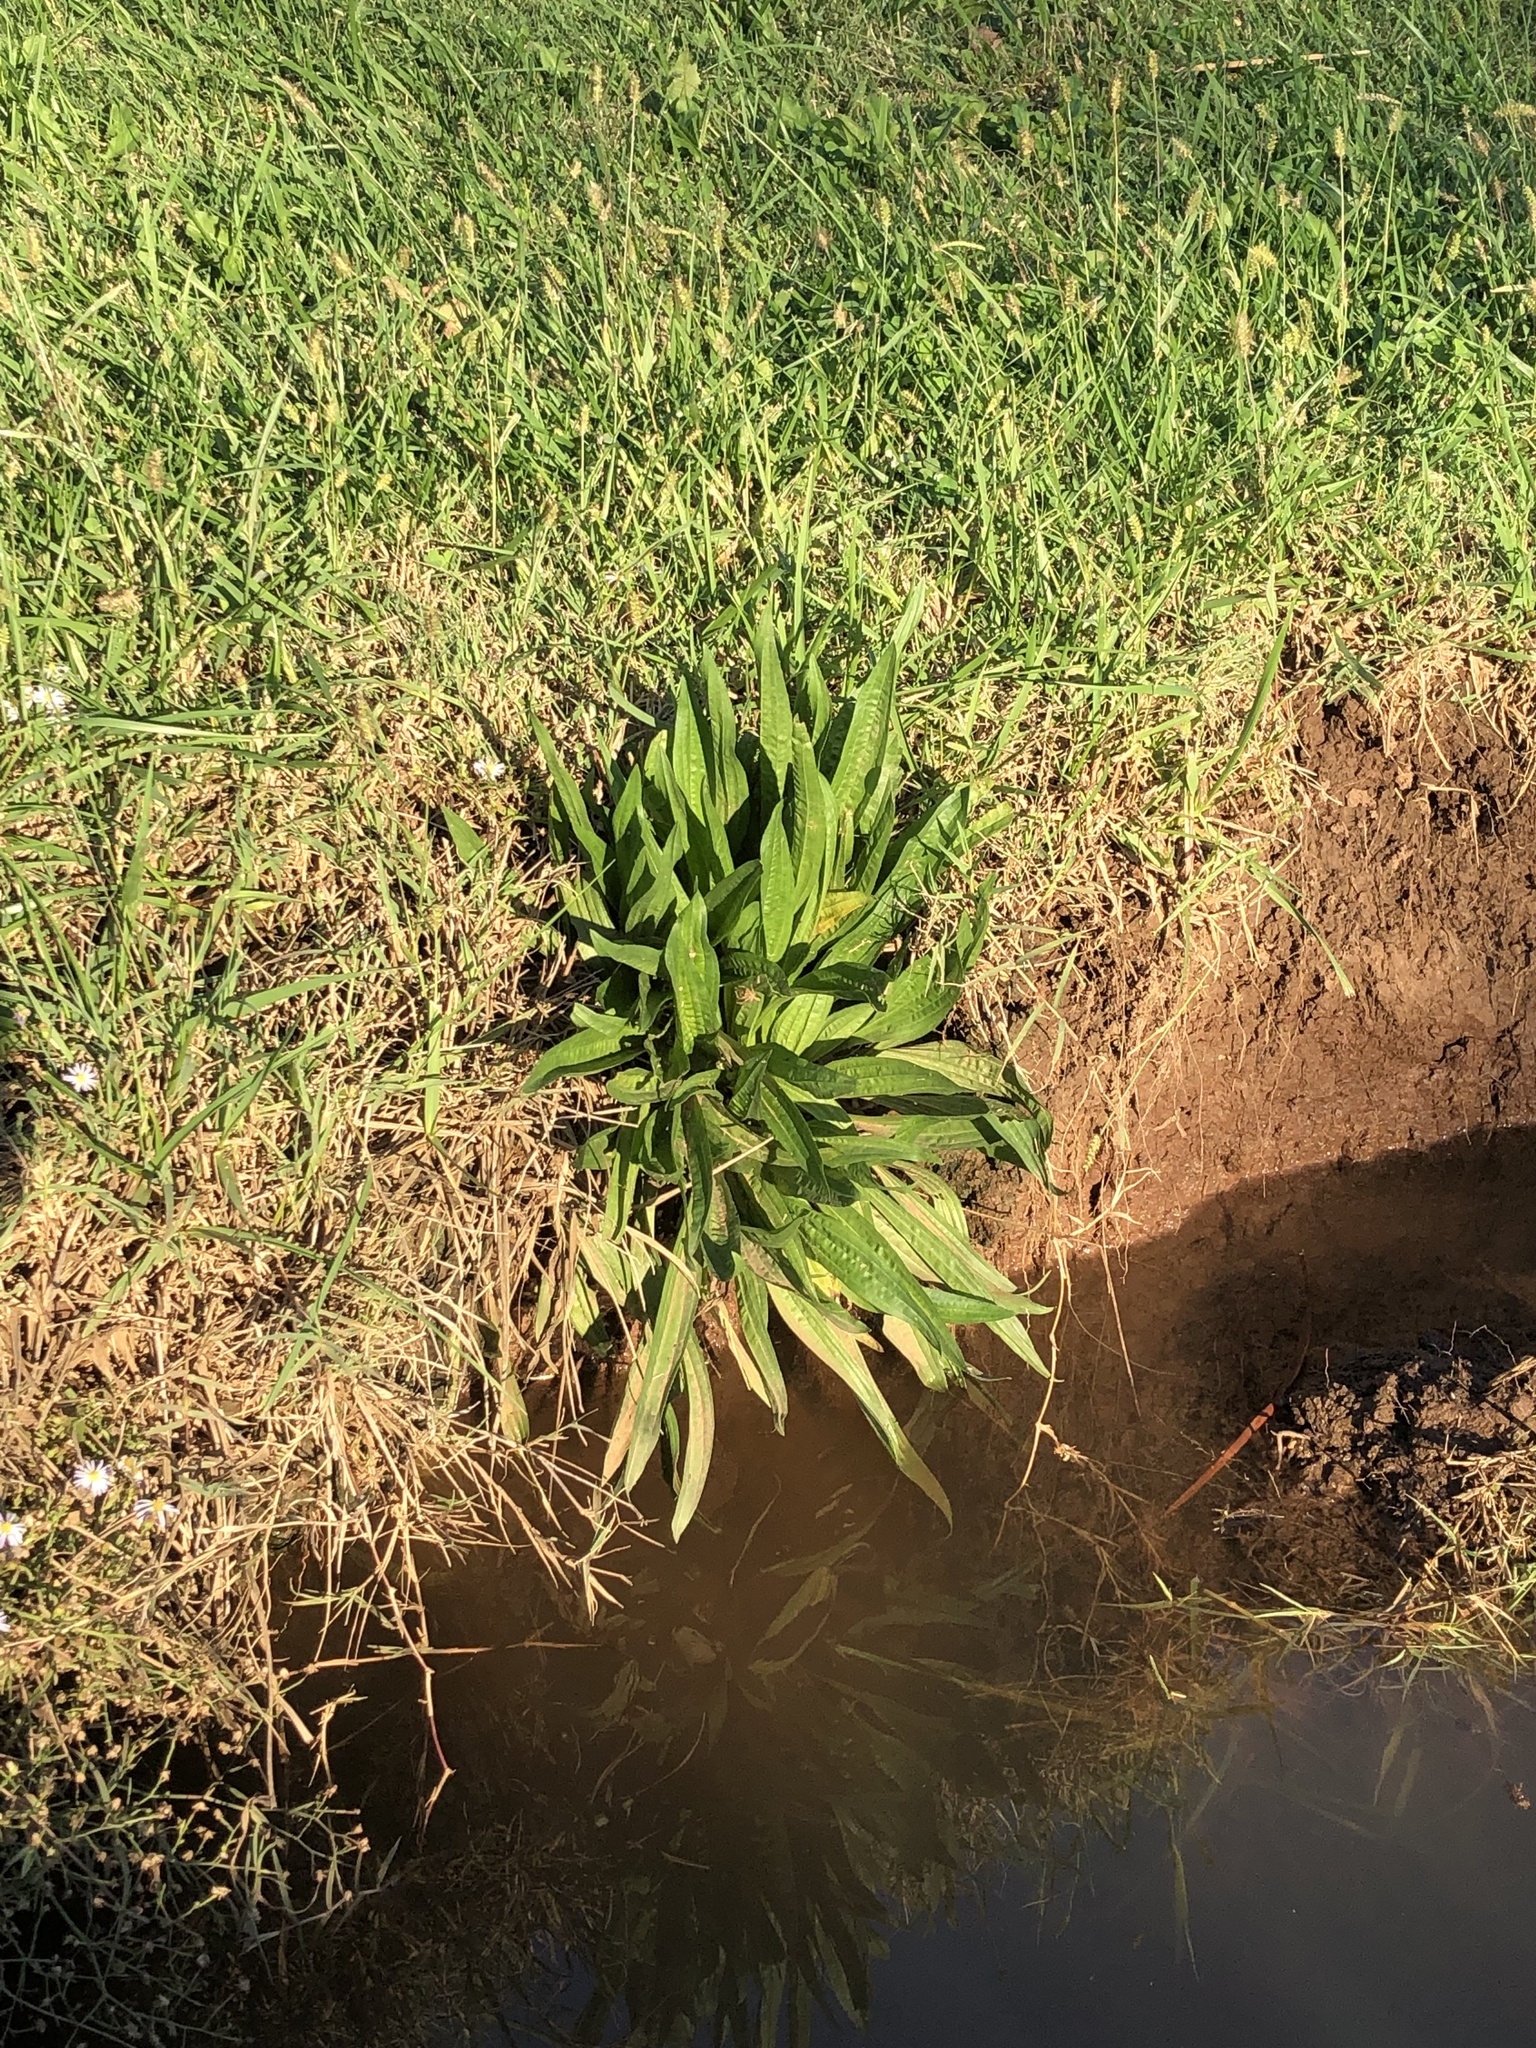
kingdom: Plantae
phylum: Tracheophyta
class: Magnoliopsida
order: Lamiales
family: Plantaginaceae
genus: Plantago
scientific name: Plantago lanceolata
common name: Ribwort plantain
